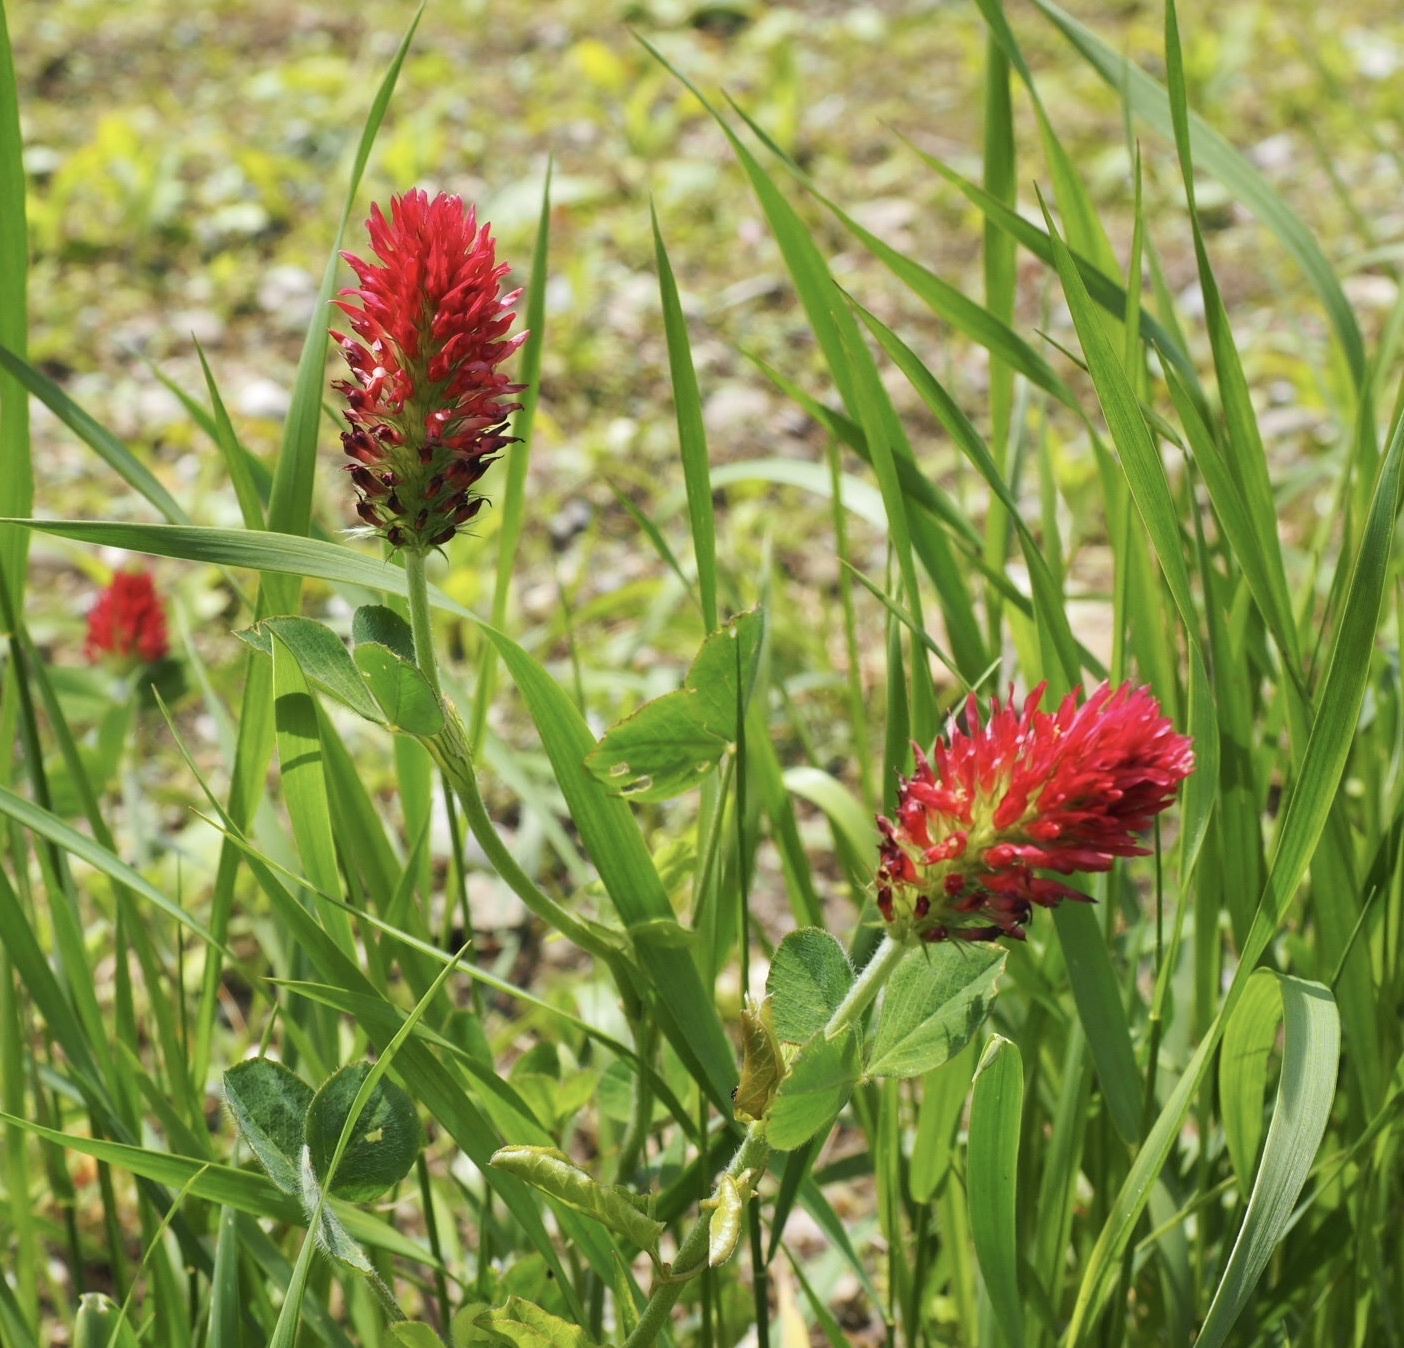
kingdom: Plantae
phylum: Tracheophyta
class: Magnoliopsida
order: Fabales
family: Fabaceae
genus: Trifolium
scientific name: Trifolium incarnatum
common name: Crimson clover
